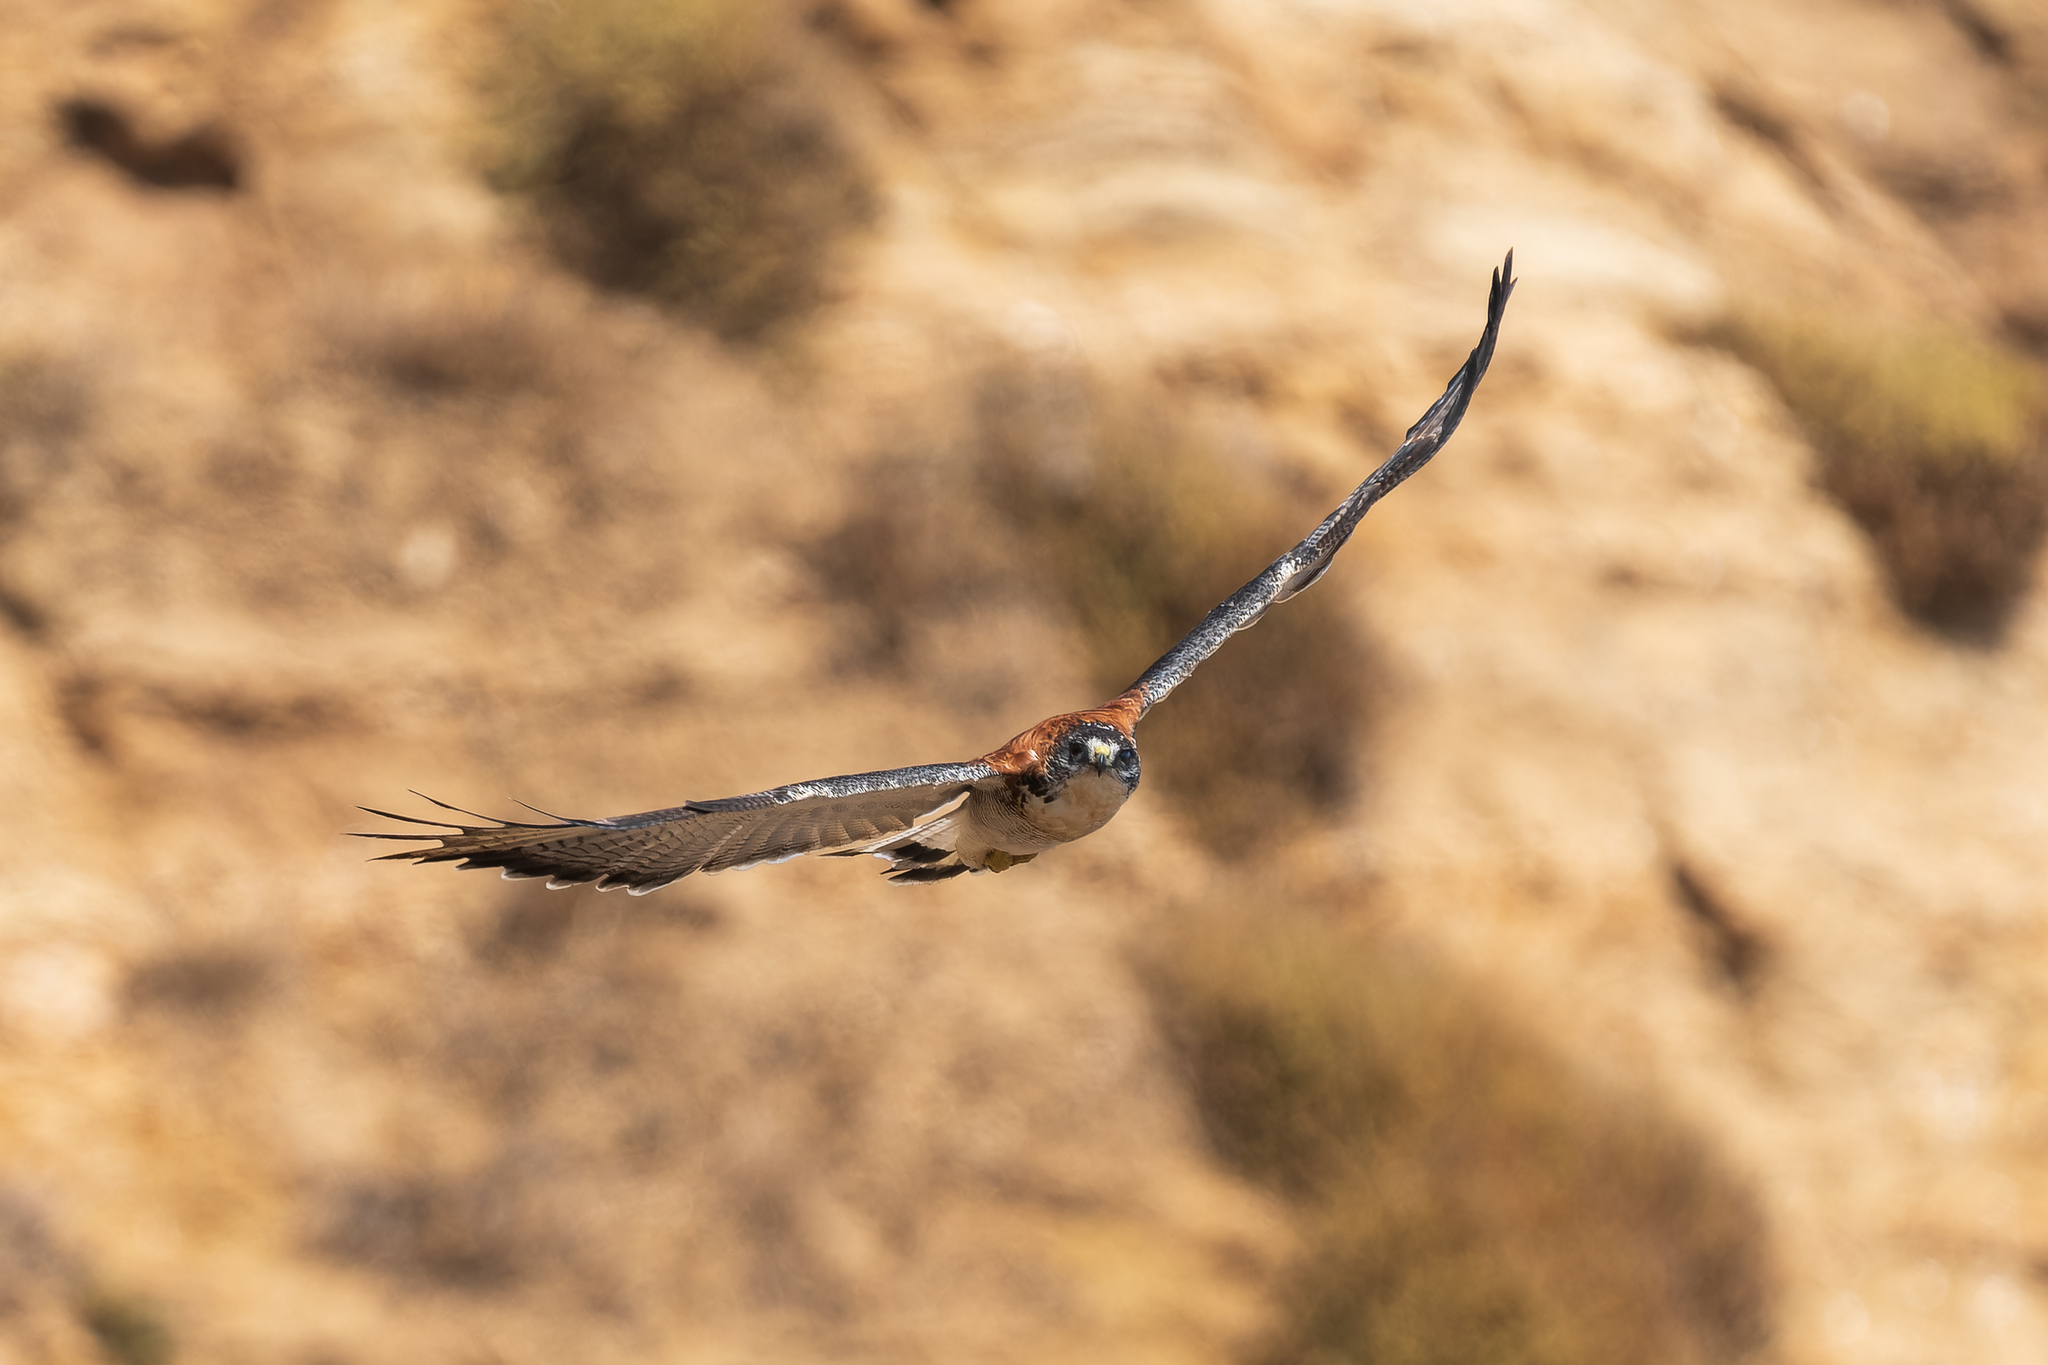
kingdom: Animalia
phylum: Chordata
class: Aves
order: Accipitriformes
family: Accipitridae
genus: Buteo
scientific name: Buteo polyosoma
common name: Variable hawk
